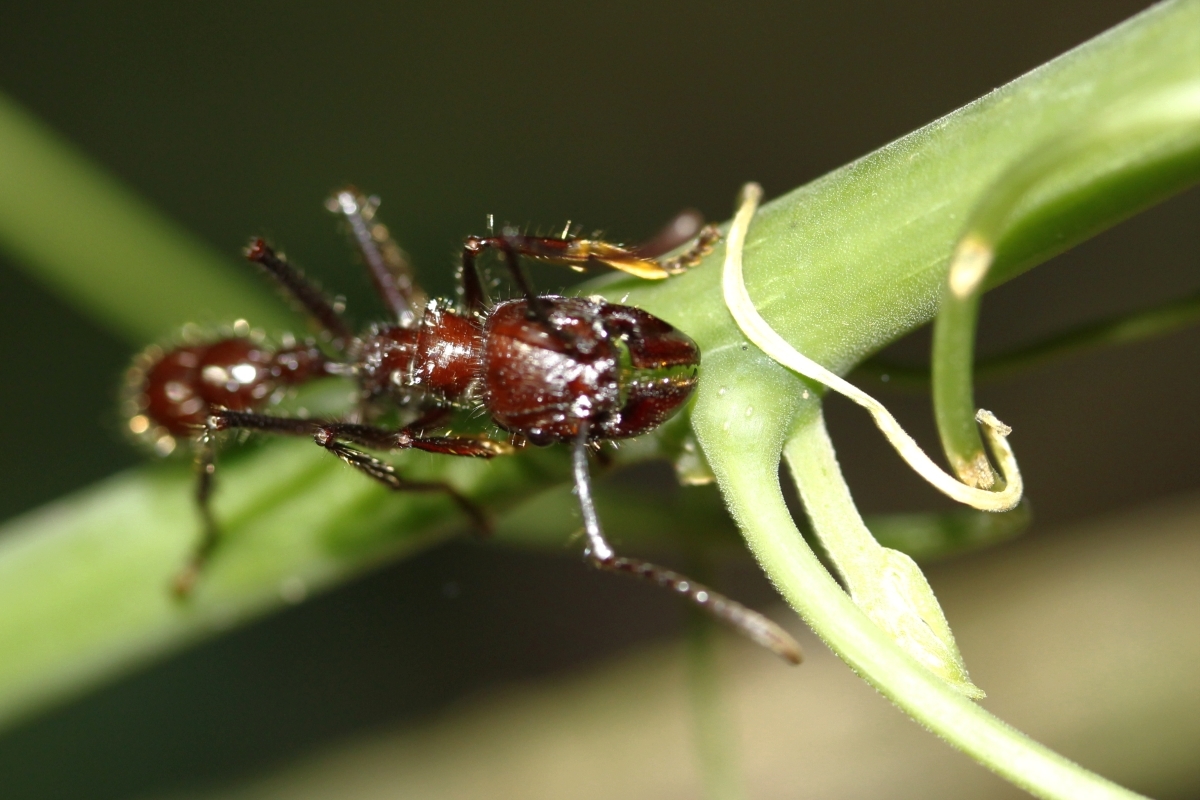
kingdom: Animalia
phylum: Arthropoda
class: Insecta
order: Hymenoptera
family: Formicidae
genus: Paraponera
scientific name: Paraponera clavata
